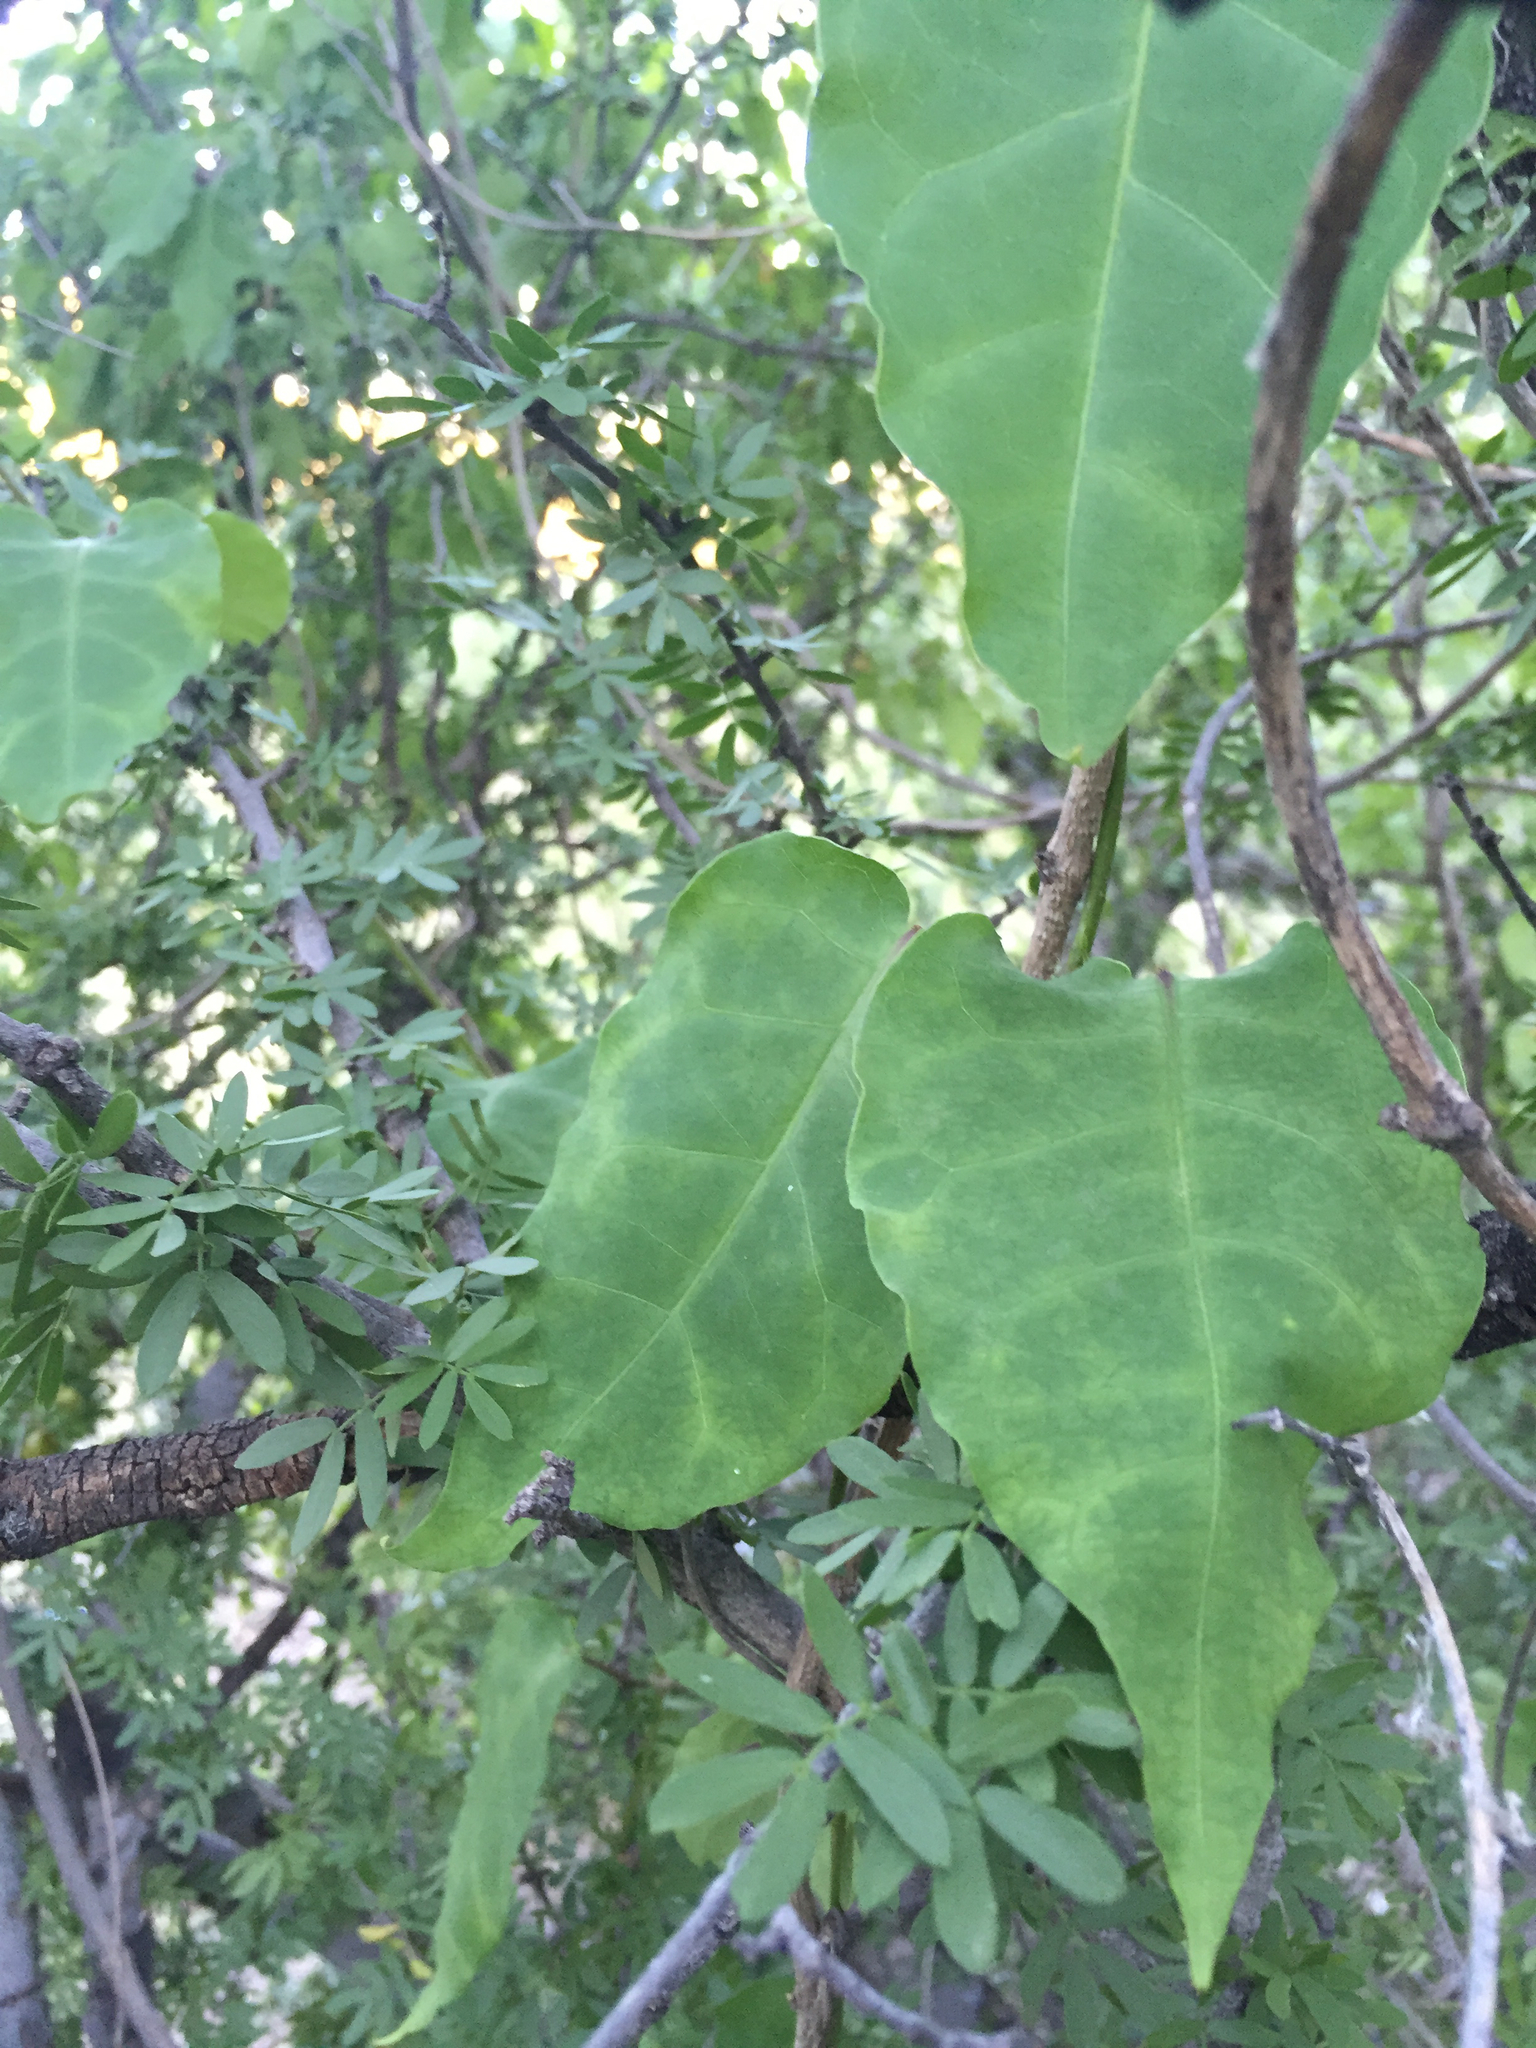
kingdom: Plantae
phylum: Tracheophyta
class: Magnoliopsida
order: Gentianales
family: Apocynaceae
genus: Ruehssia
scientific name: Ruehssia edulis
